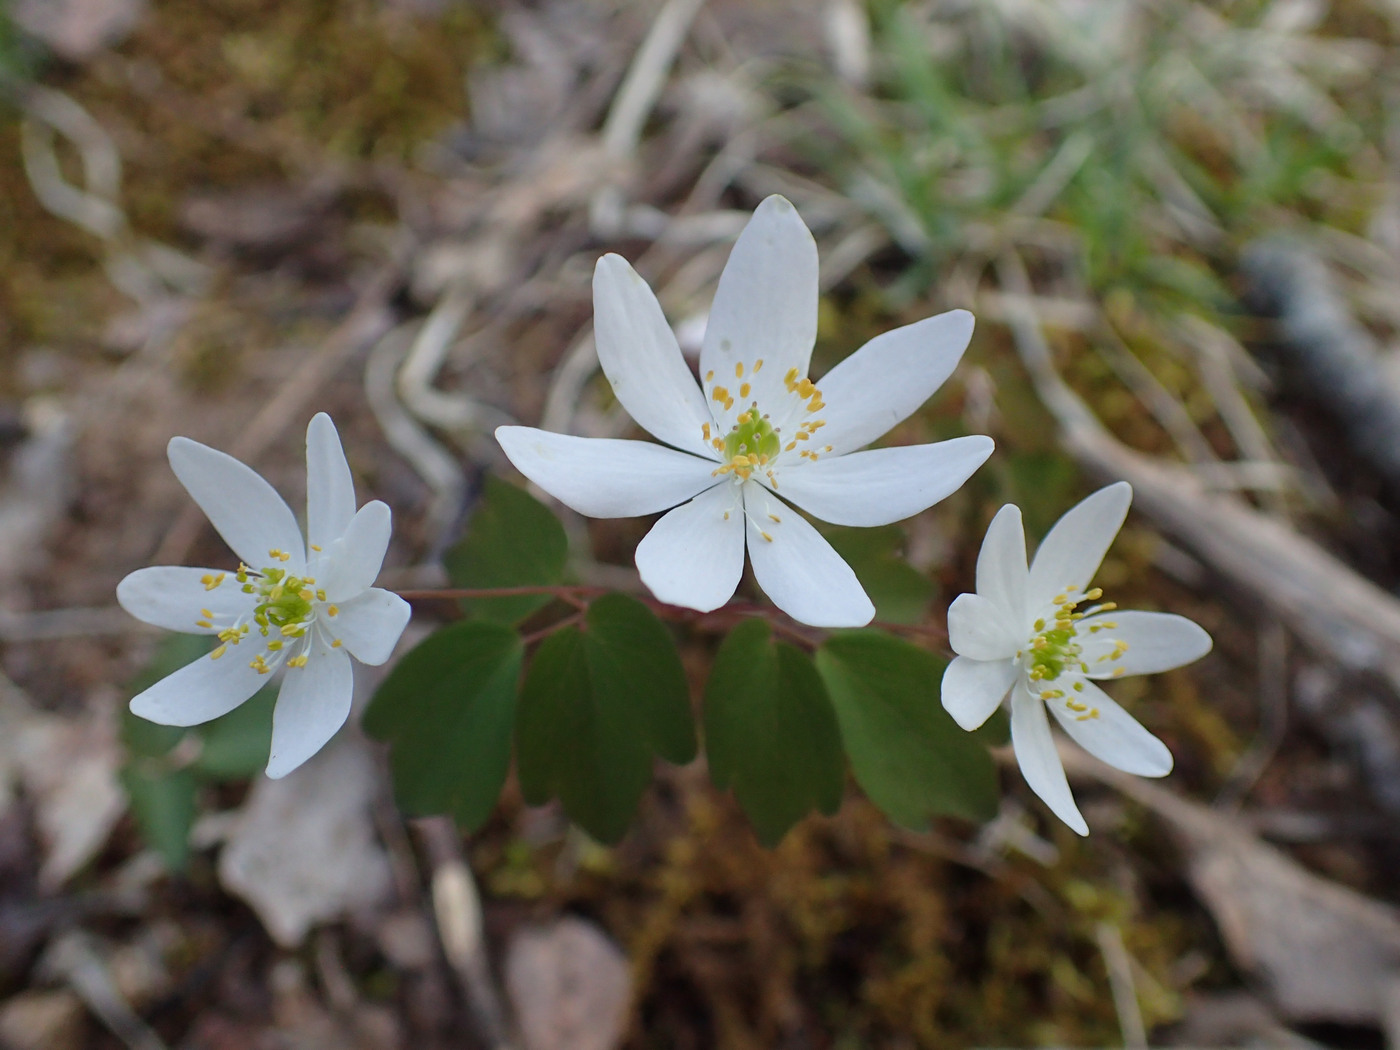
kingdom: Plantae
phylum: Tracheophyta
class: Magnoliopsida
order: Ranunculales
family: Ranunculaceae
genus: Thalictrum
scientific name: Thalictrum thalictroides
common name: Rue-anemone
